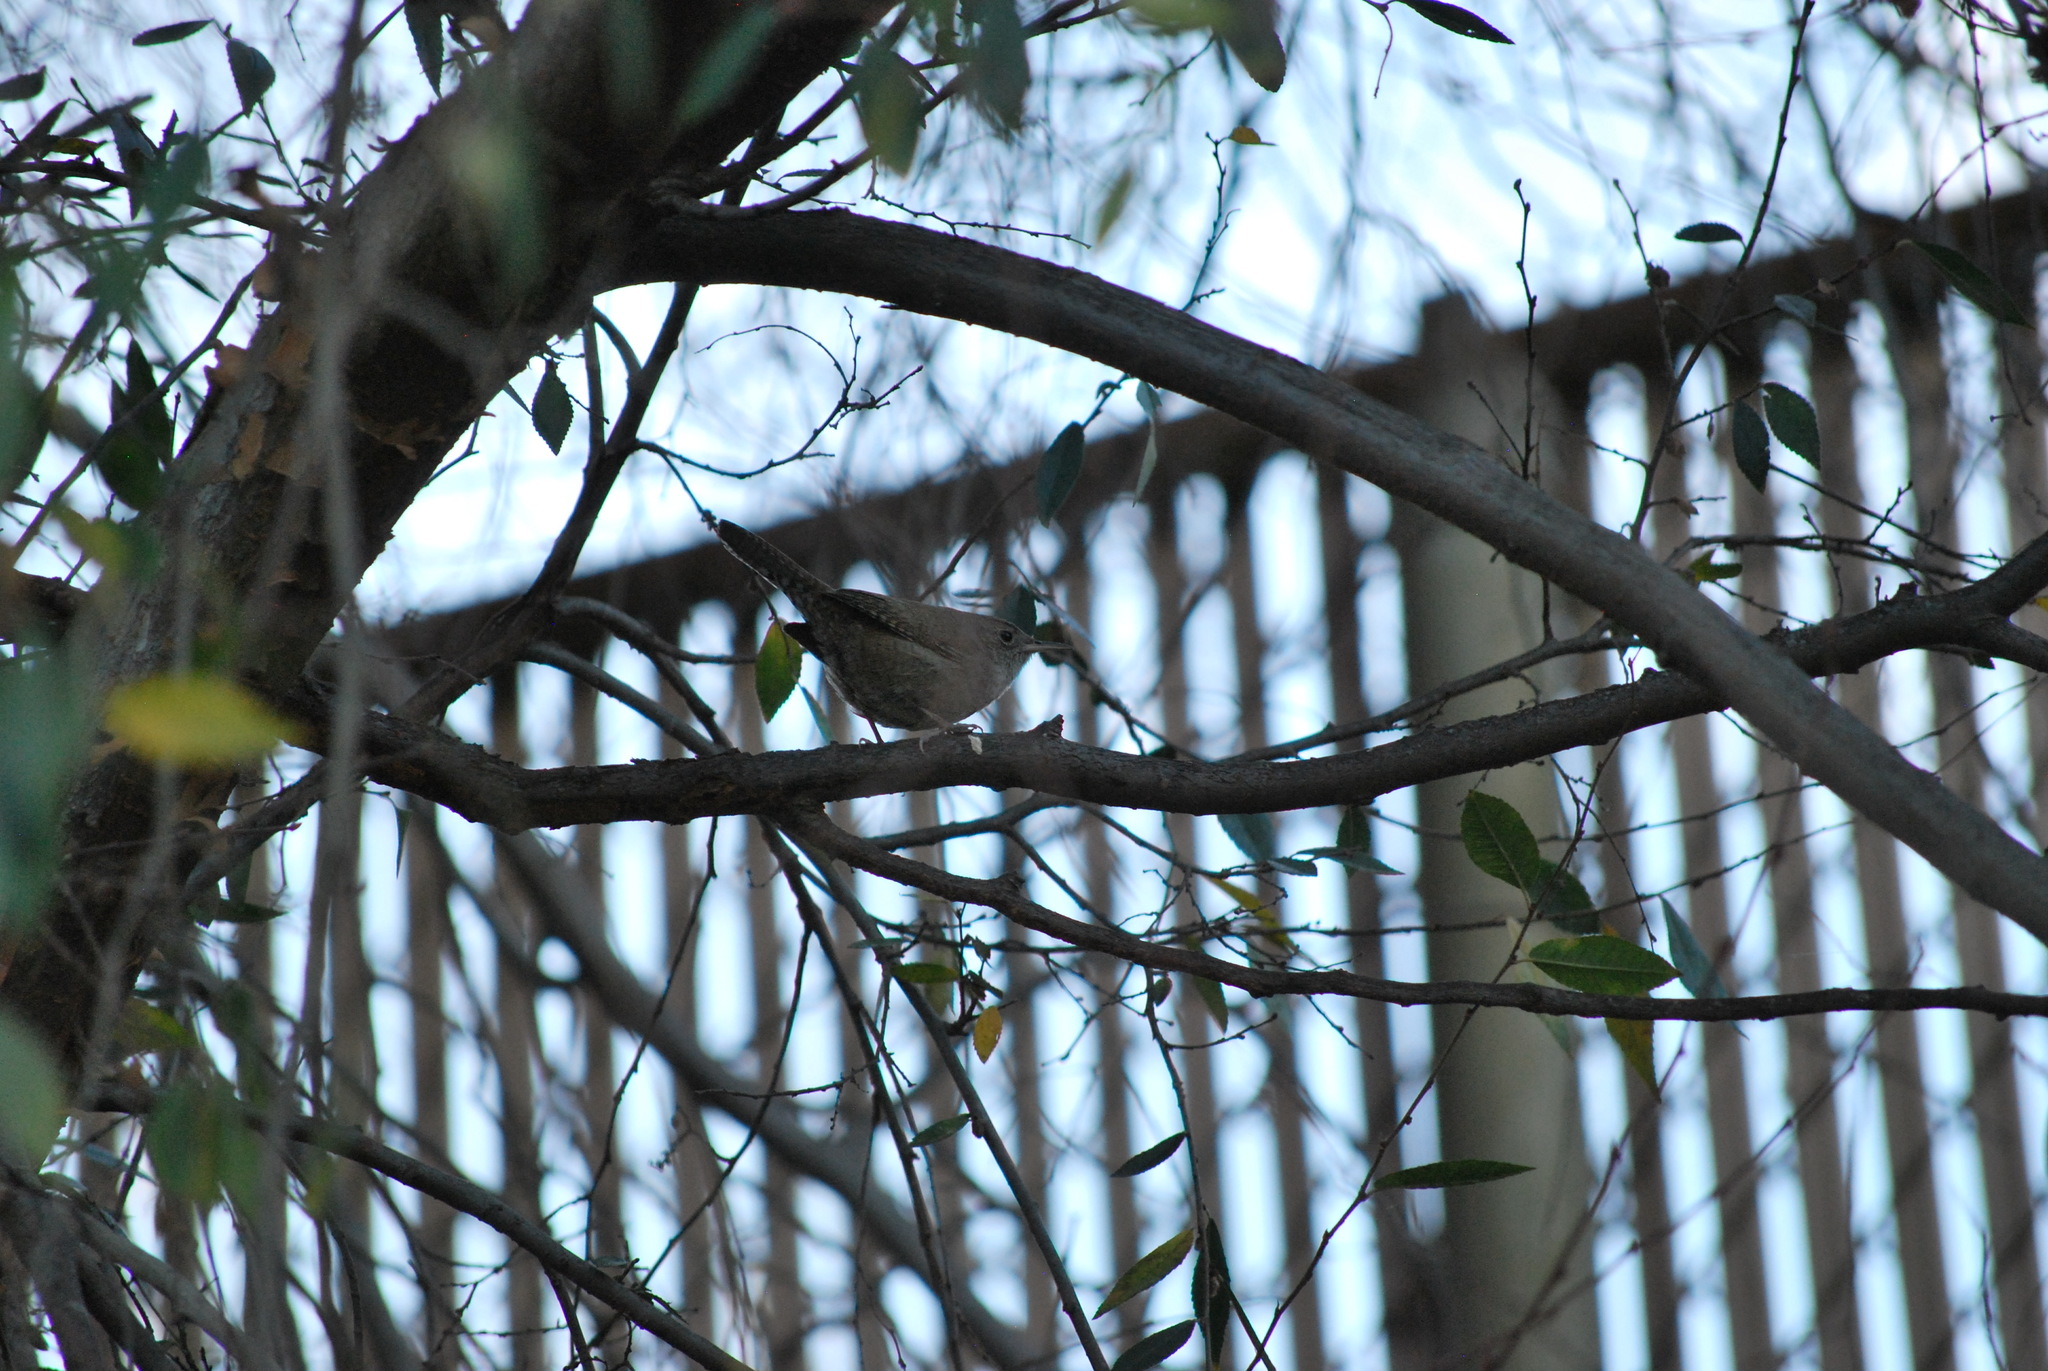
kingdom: Animalia
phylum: Chordata
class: Aves
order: Passeriformes
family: Troglodytidae
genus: Troglodytes
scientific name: Troglodytes aedon
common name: House wren
